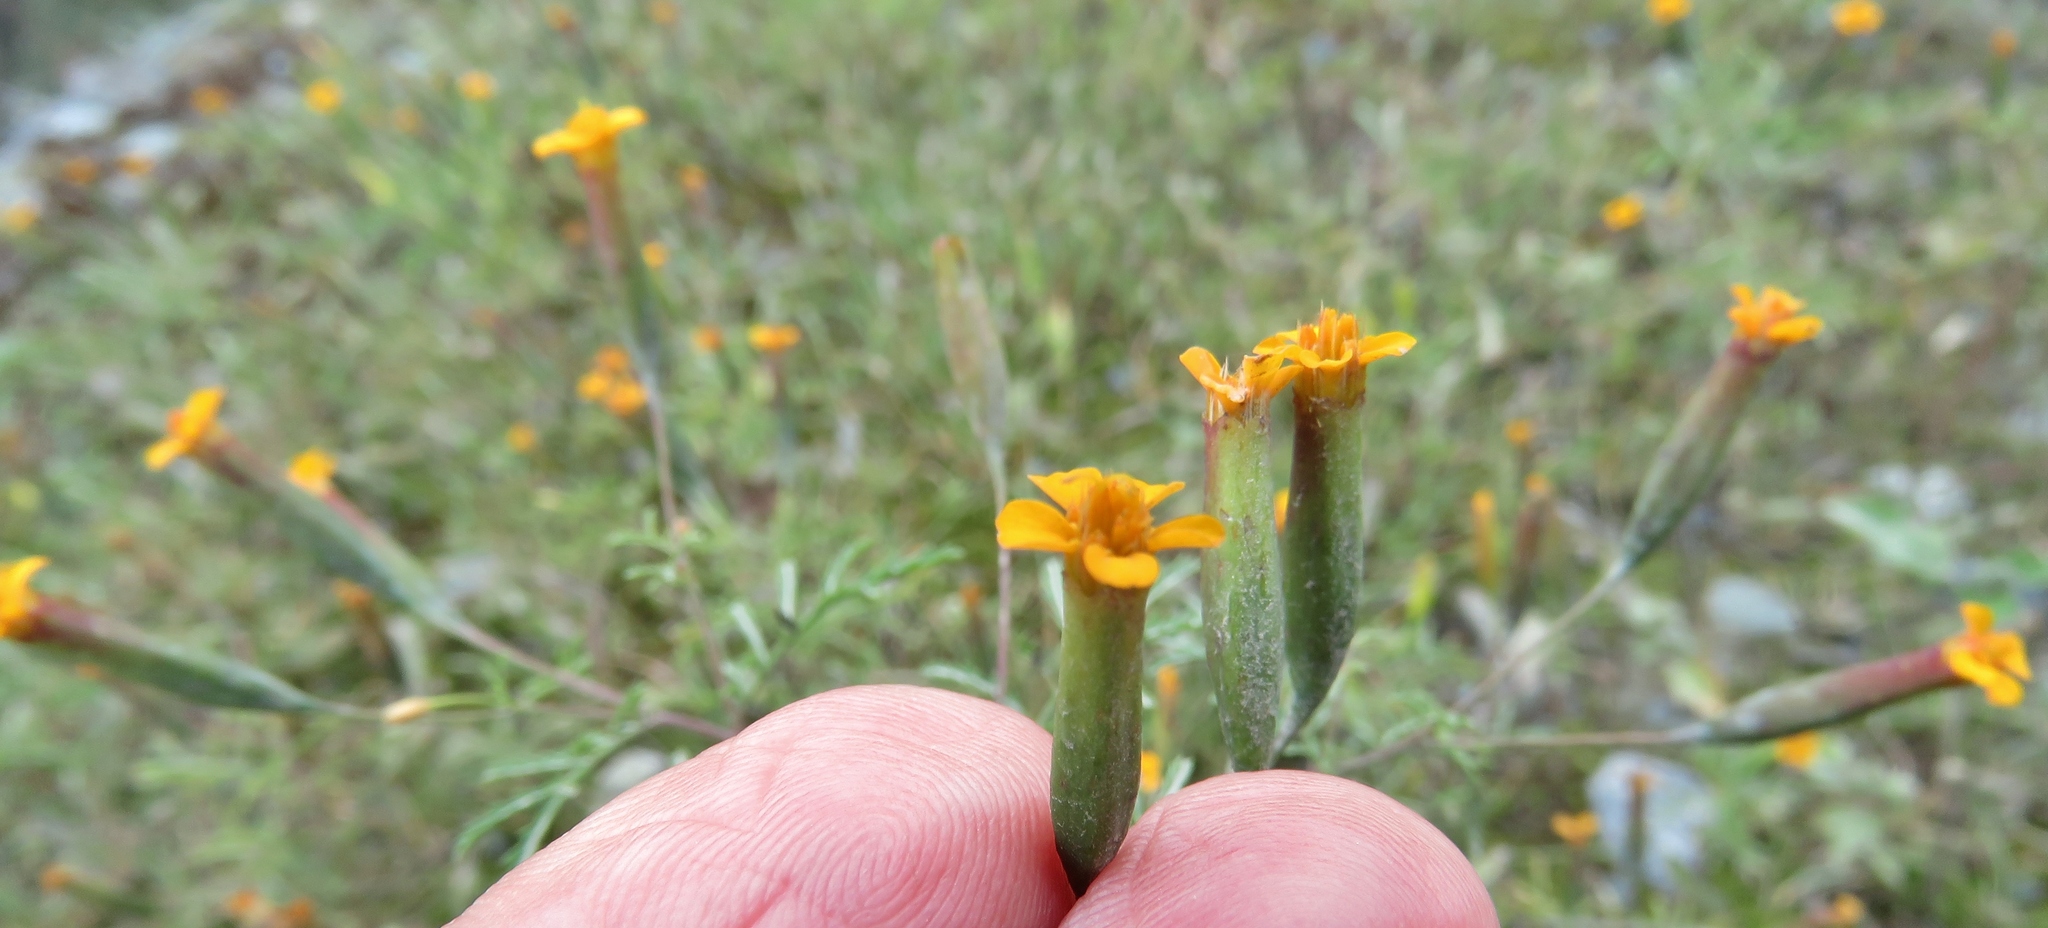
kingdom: Plantae
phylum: Tracheophyta
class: Magnoliopsida
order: Asterales
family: Asteraceae
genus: Tagetes
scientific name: Tagetes
